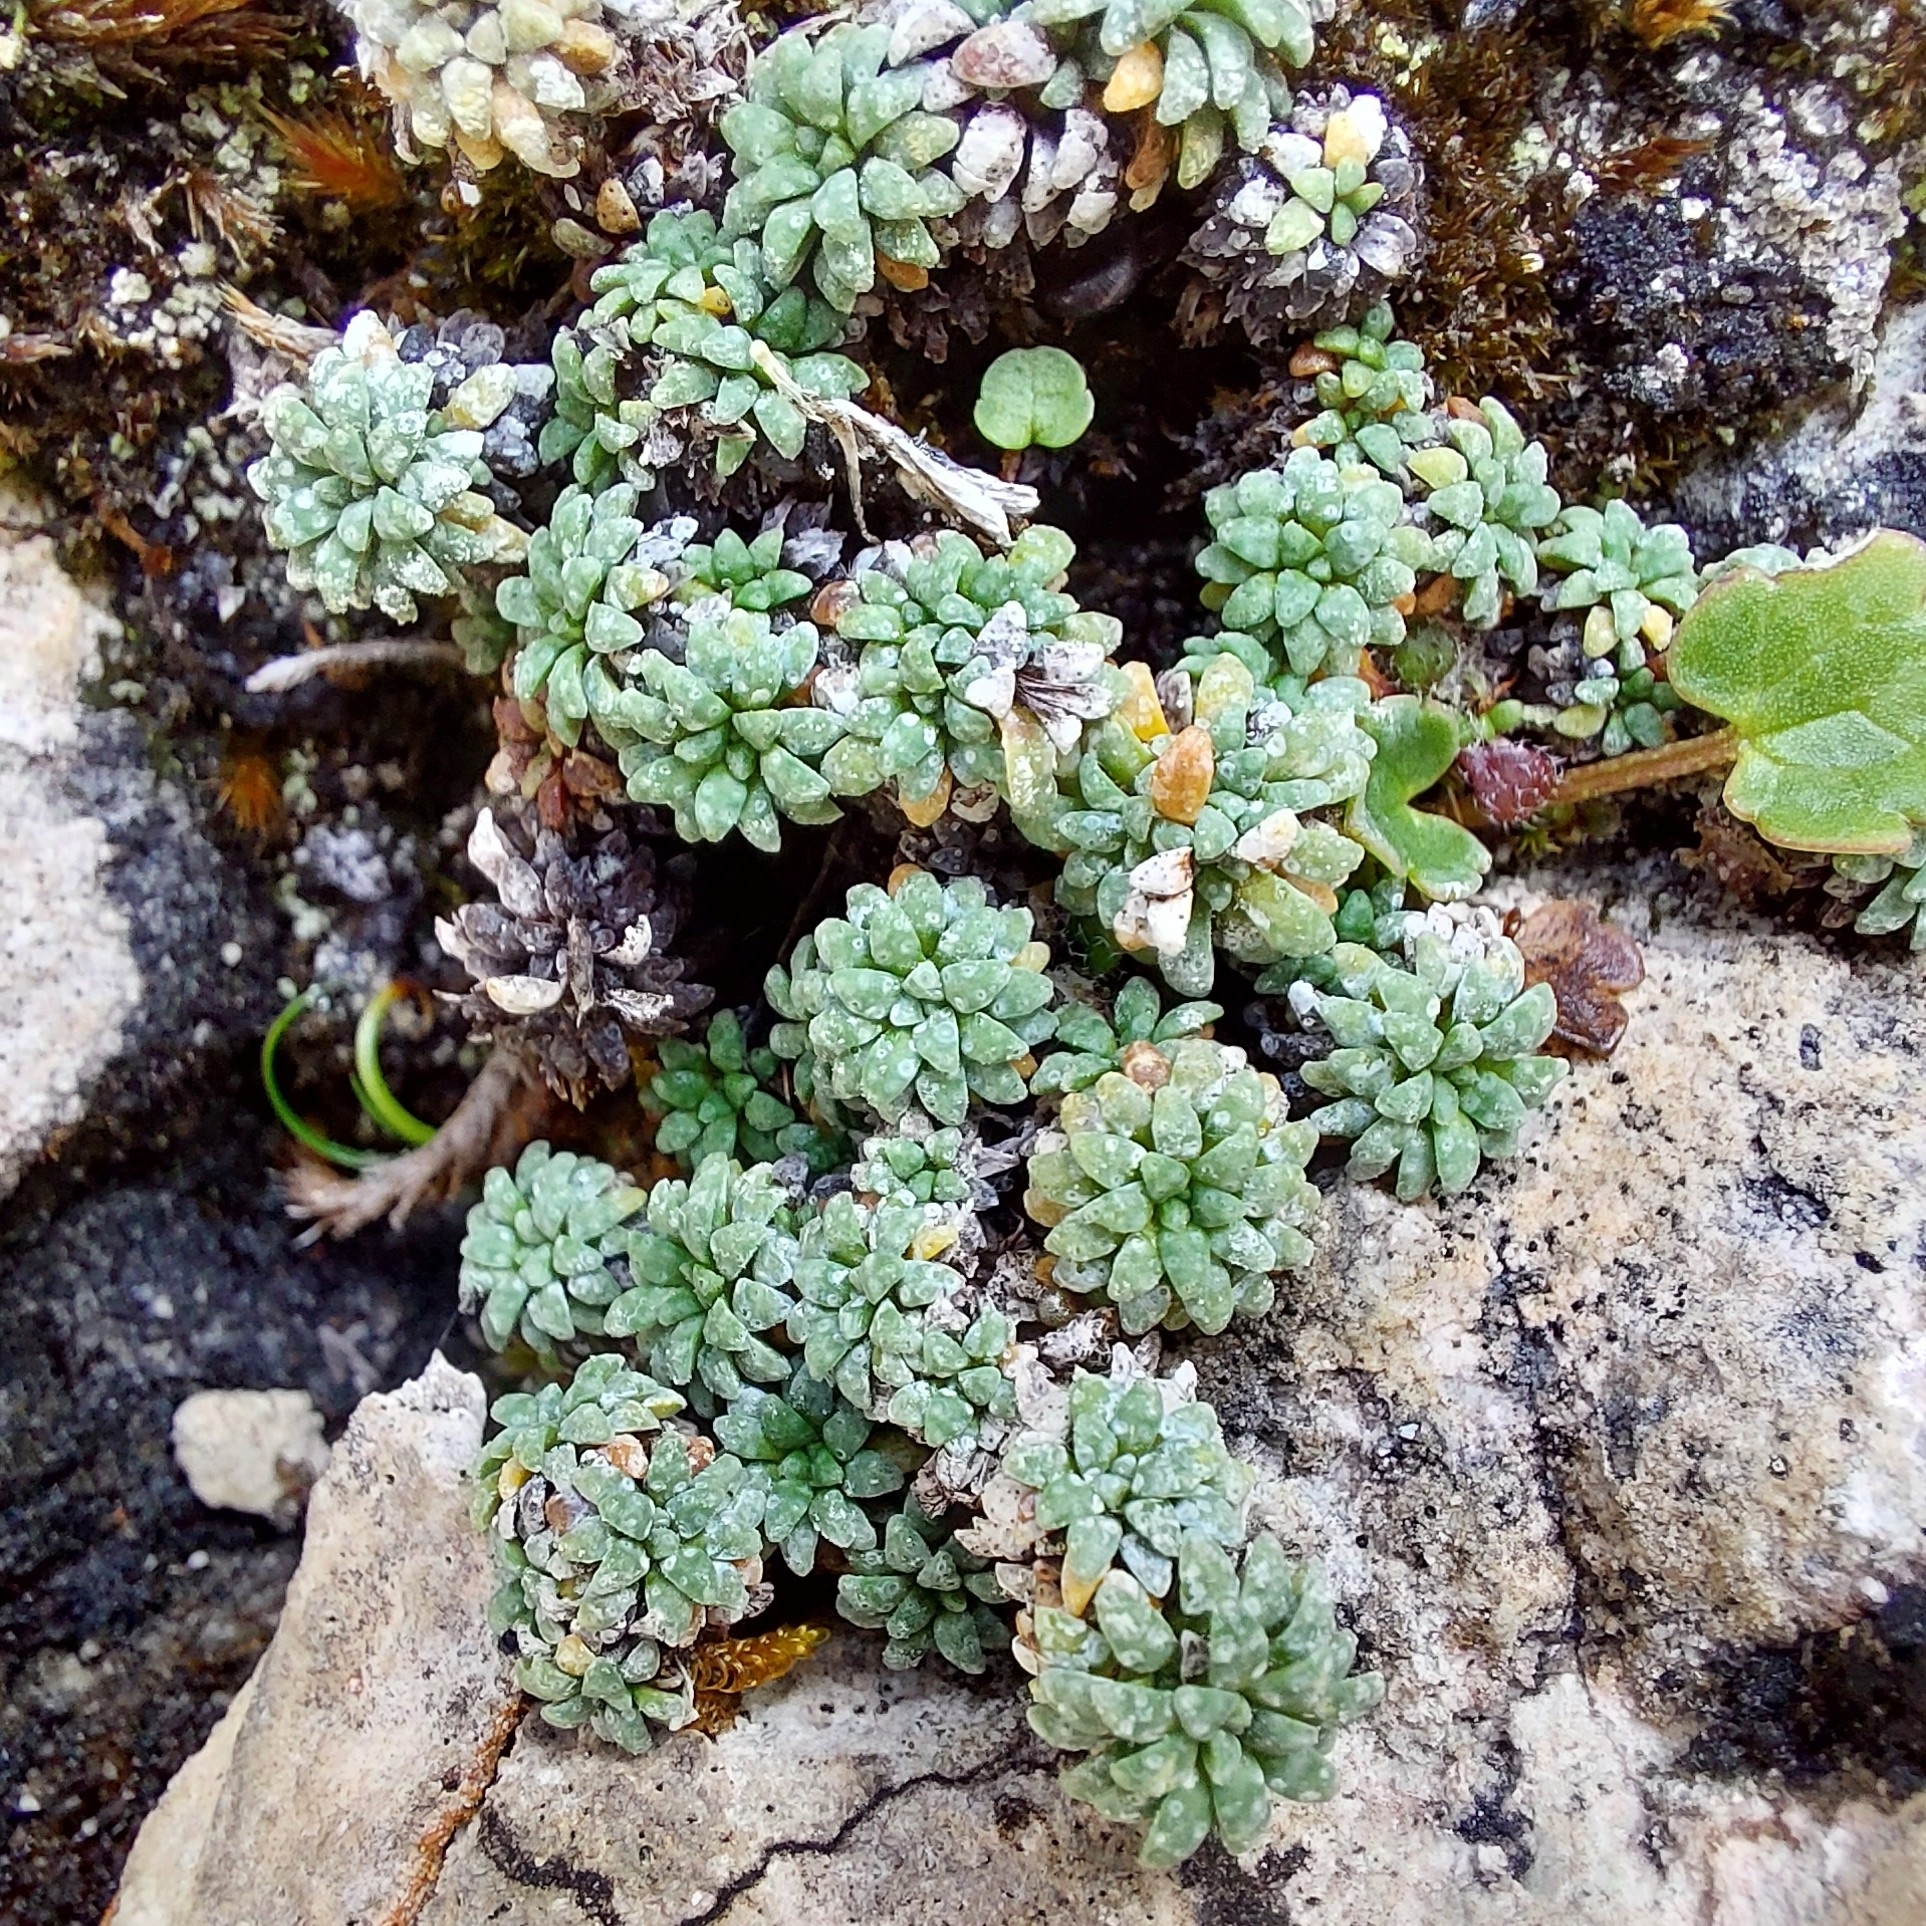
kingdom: Plantae
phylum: Tracheophyta
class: Magnoliopsida
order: Saxifragales
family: Saxifragaceae
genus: Saxifraga
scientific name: Saxifraga caesia
